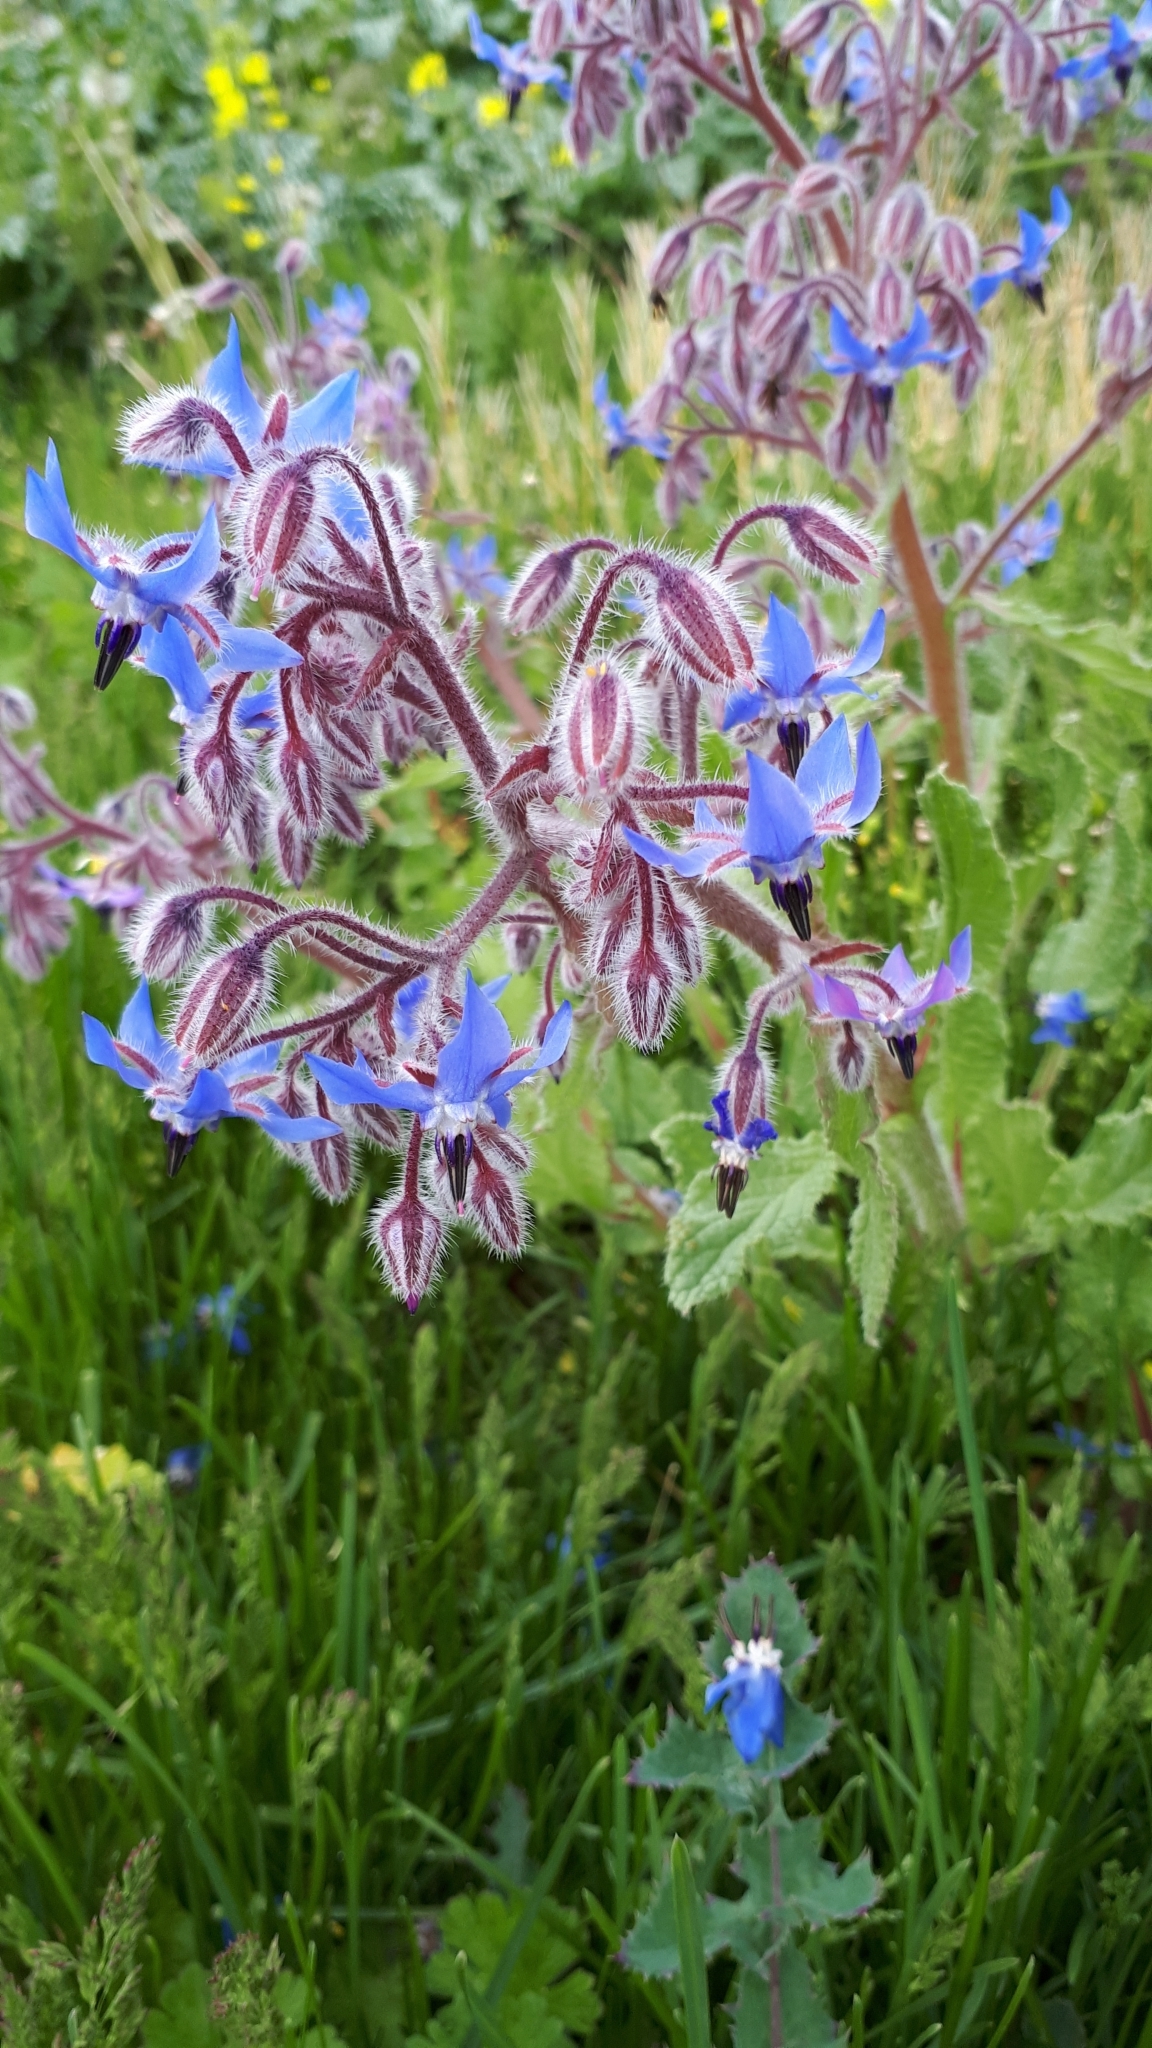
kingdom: Plantae
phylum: Tracheophyta
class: Magnoliopsida
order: Boraginales
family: Boraginaceae
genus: Borago
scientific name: Borago officinalis
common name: Borage
